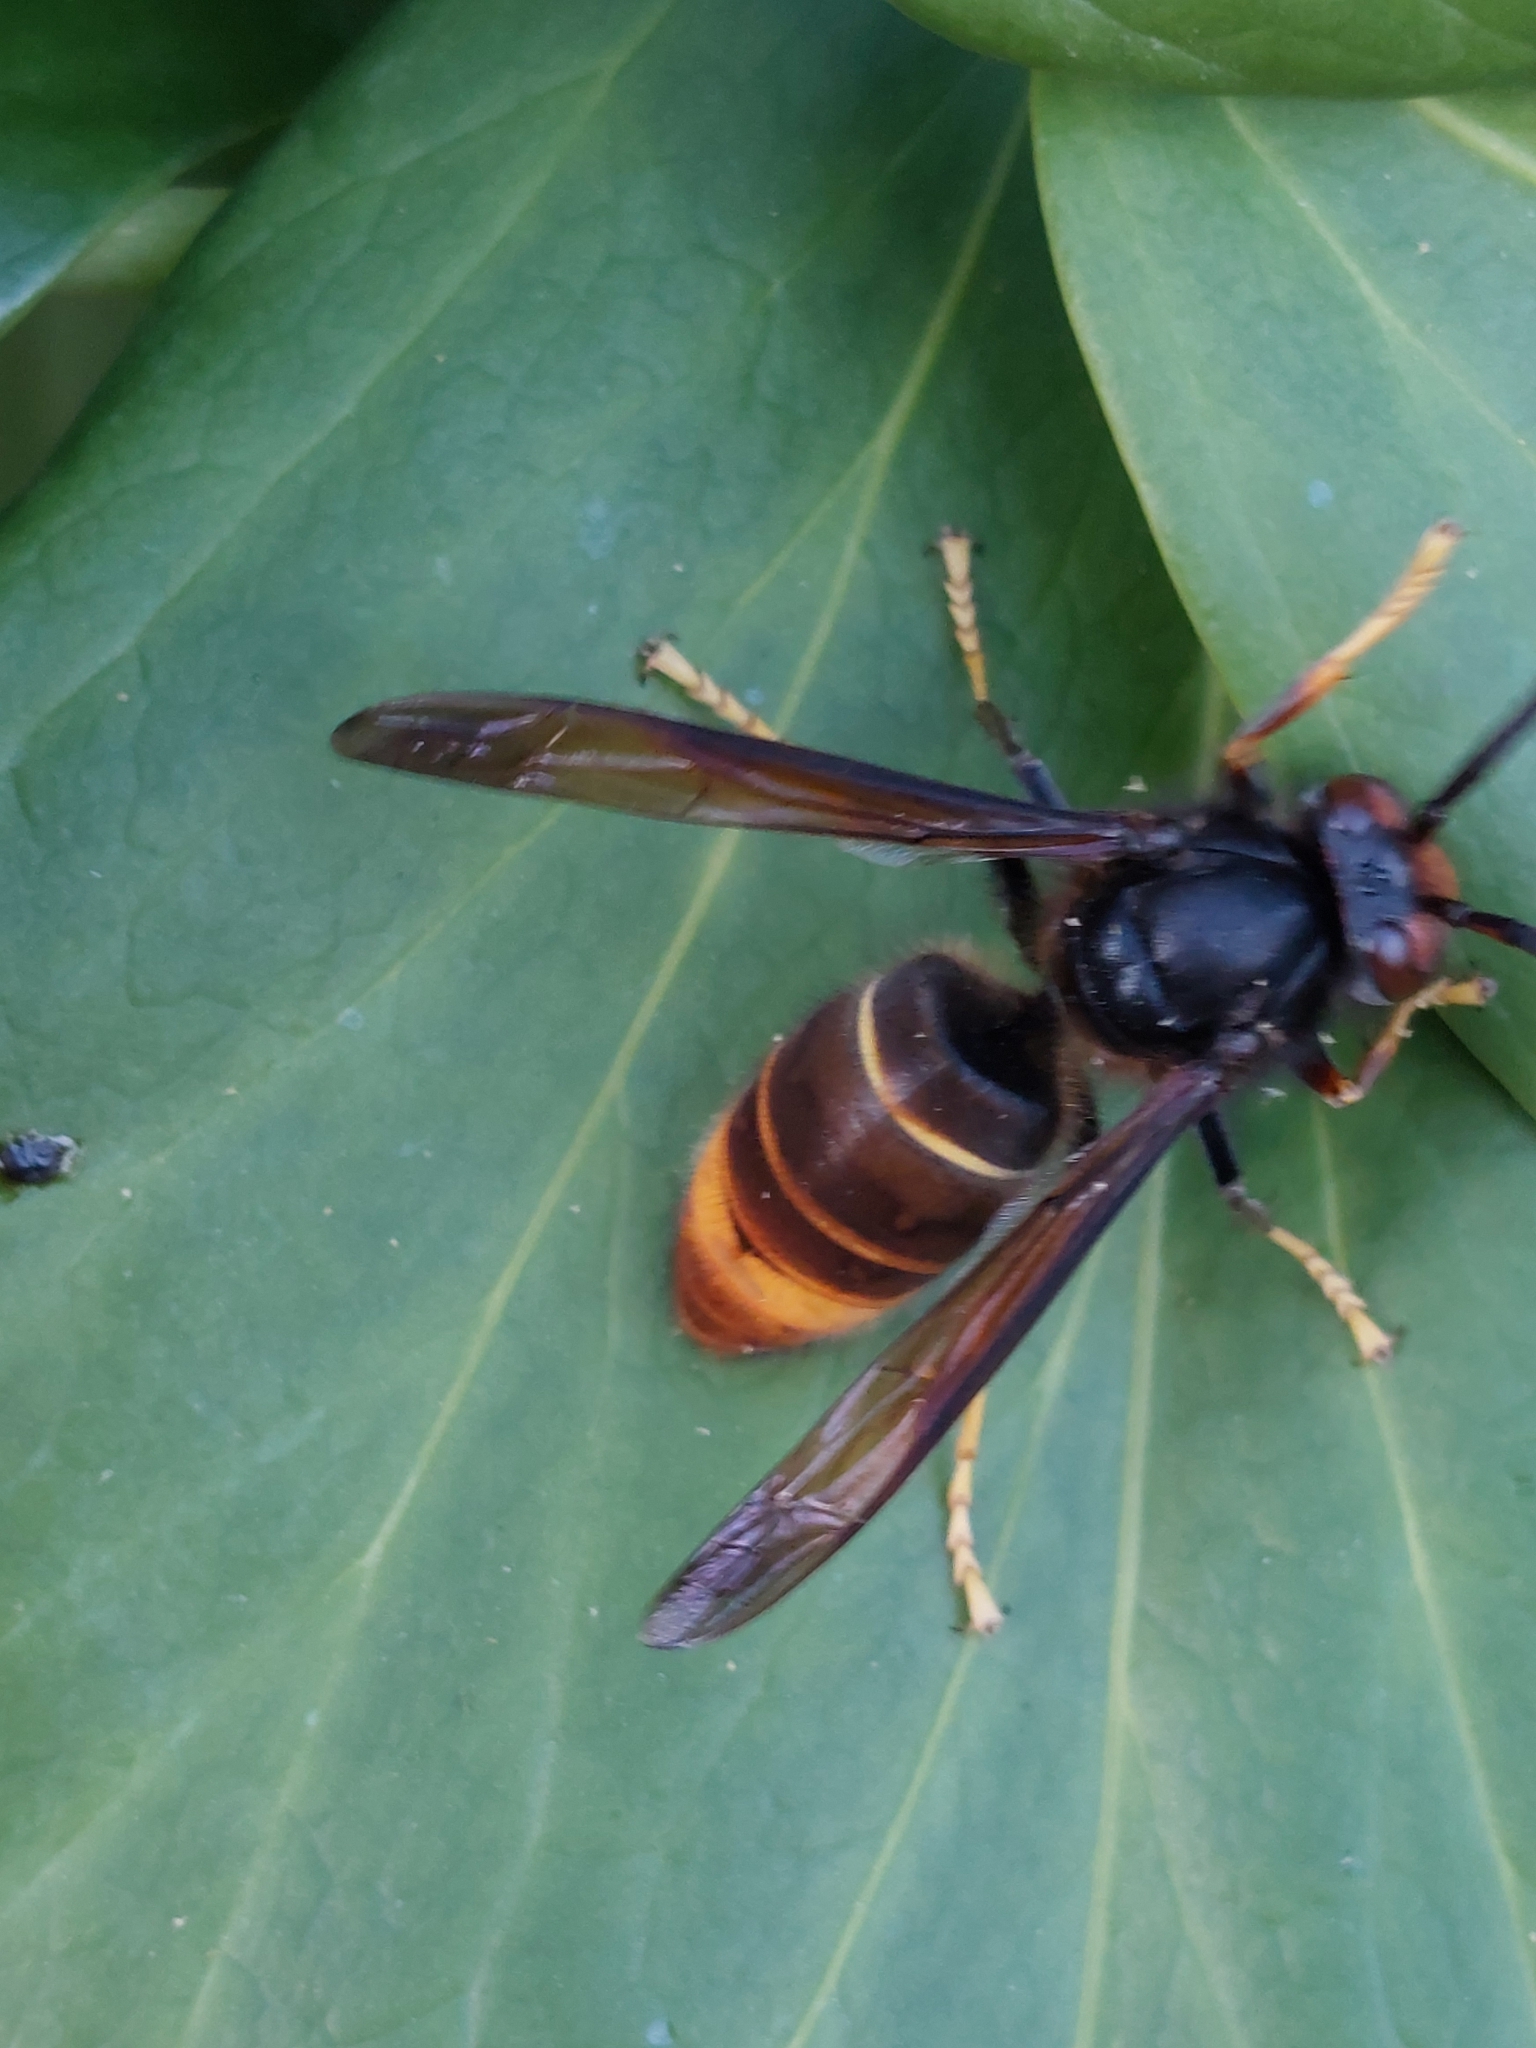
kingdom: Animalia
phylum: Arthropoda
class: Insecta
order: Hymenoptera
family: Vespidae
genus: Vespa
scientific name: Vespa velutina
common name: Asian hornet
